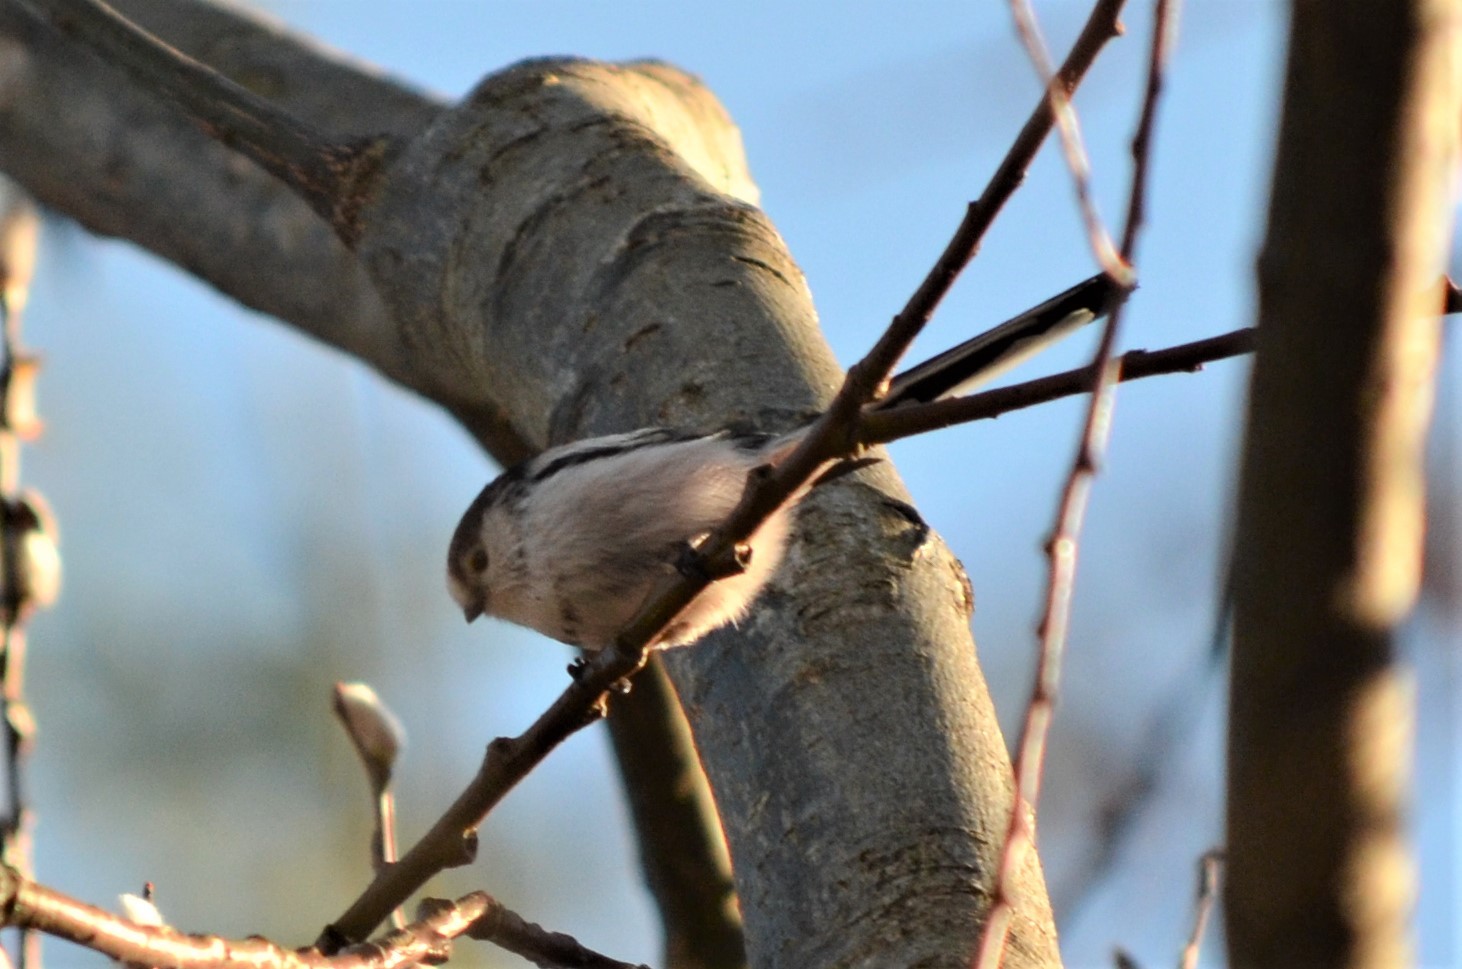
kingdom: Animalia
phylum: Chordata
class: Aves
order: Passeriformes
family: Aegithalidae
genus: Aegithalos
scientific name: Aegithalos caudatus
